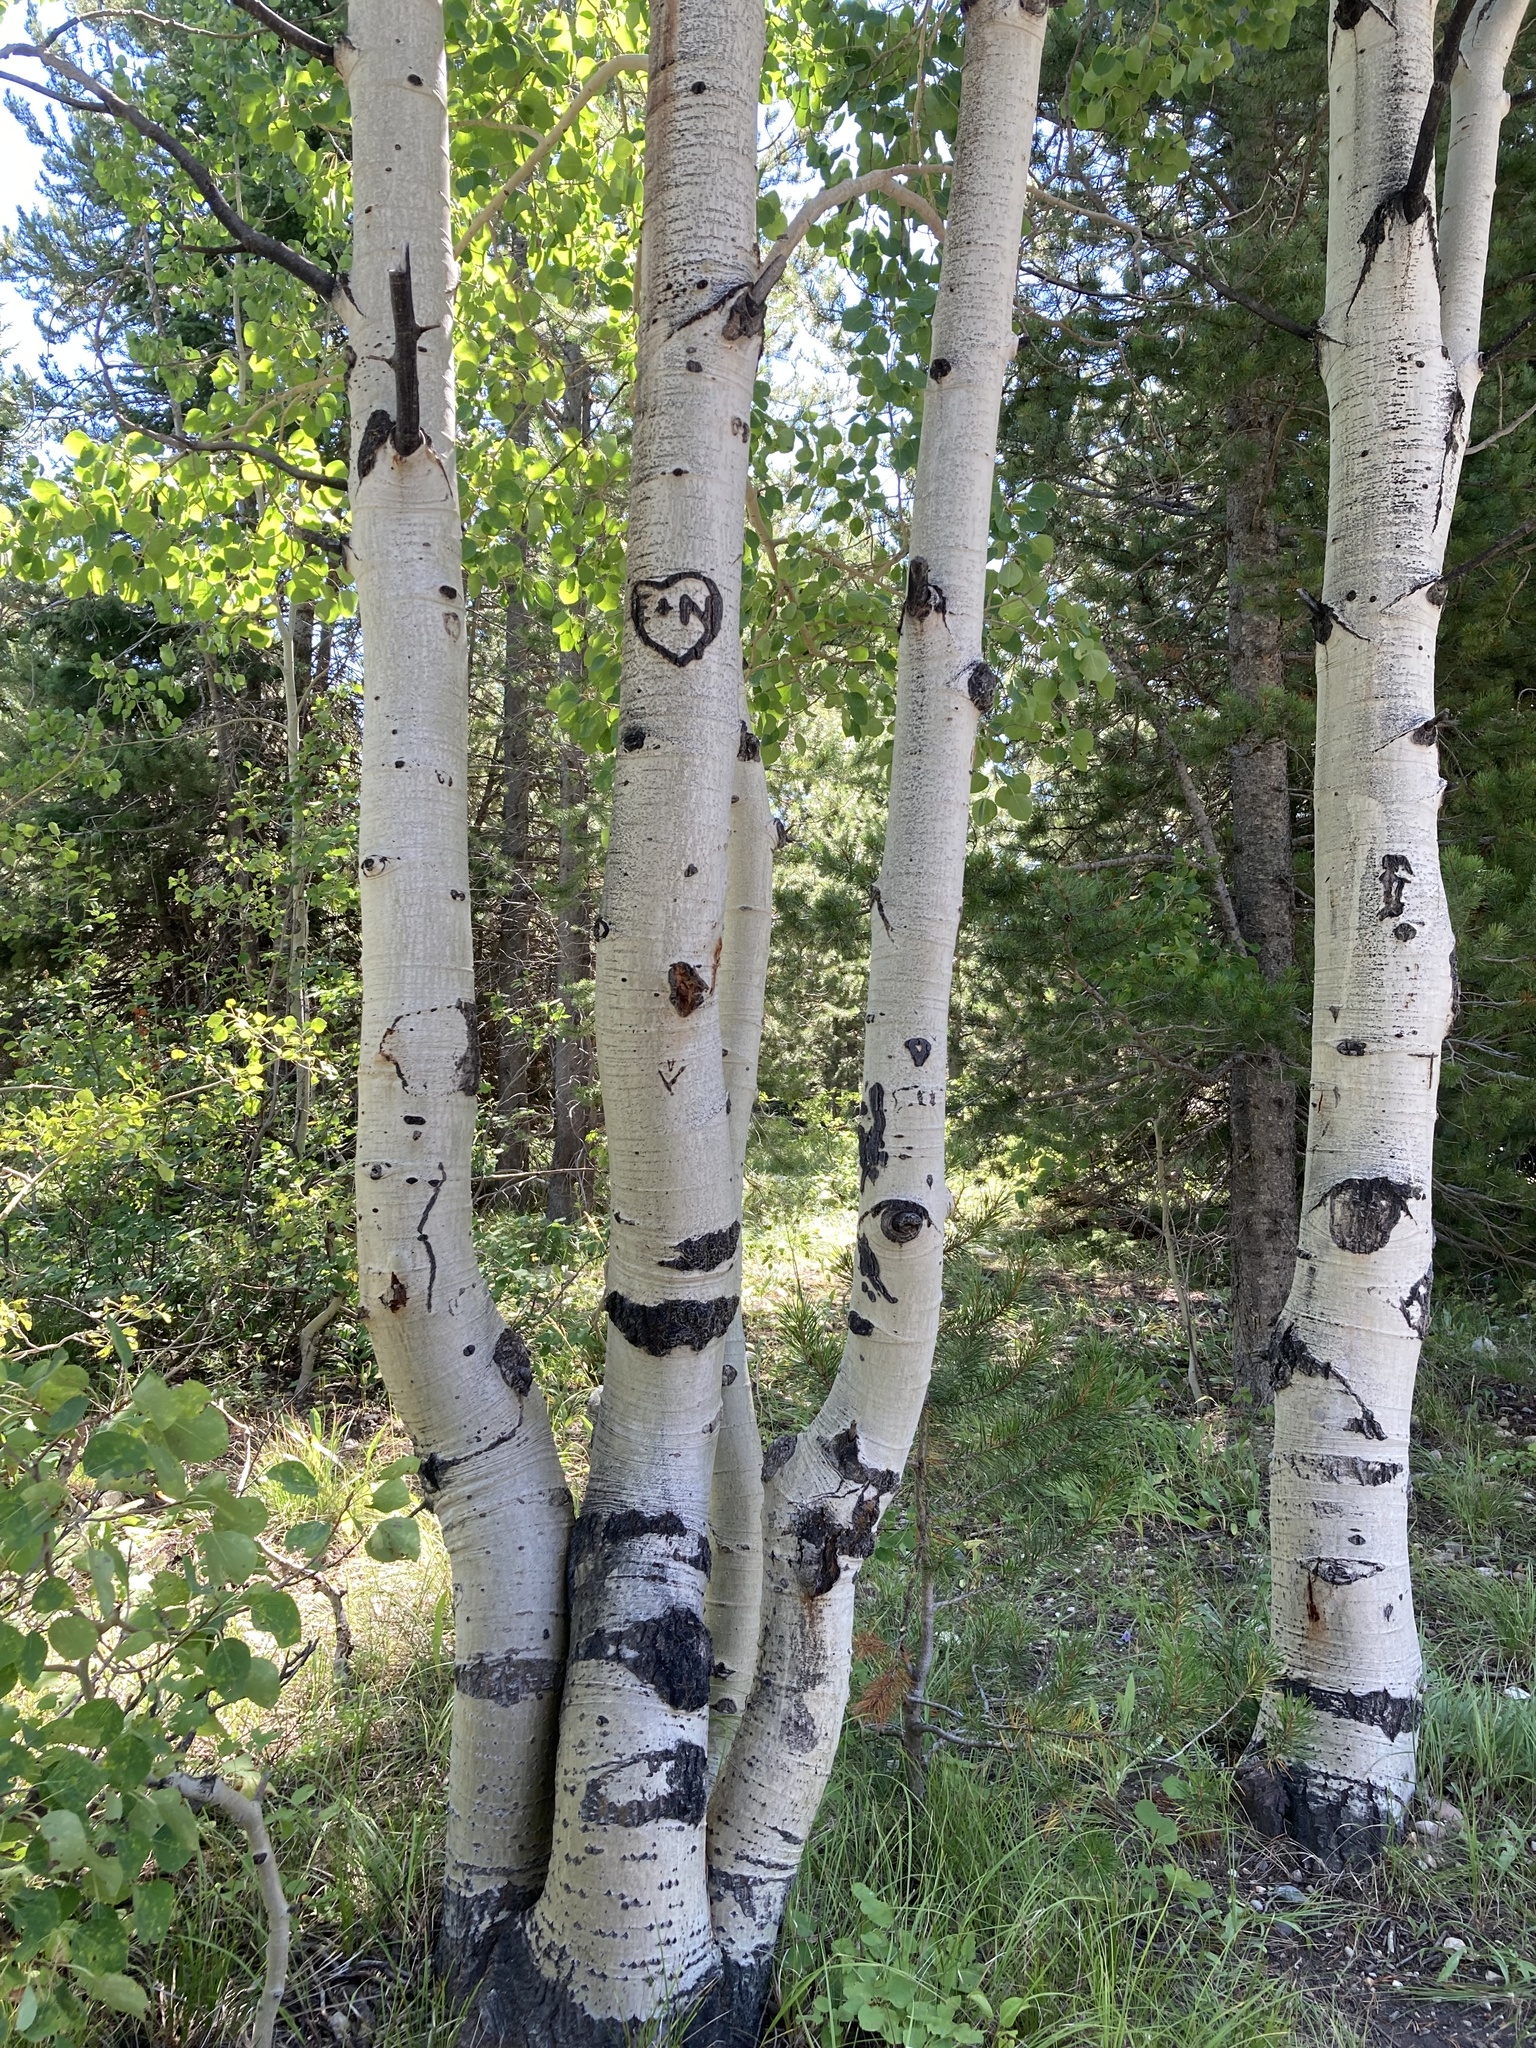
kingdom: Plantae
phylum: Tracheophyta
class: Magnoliopsida
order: Malpighiales
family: Salicaceae
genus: Populus
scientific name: Populus tremuloides
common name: Quaking aspen
